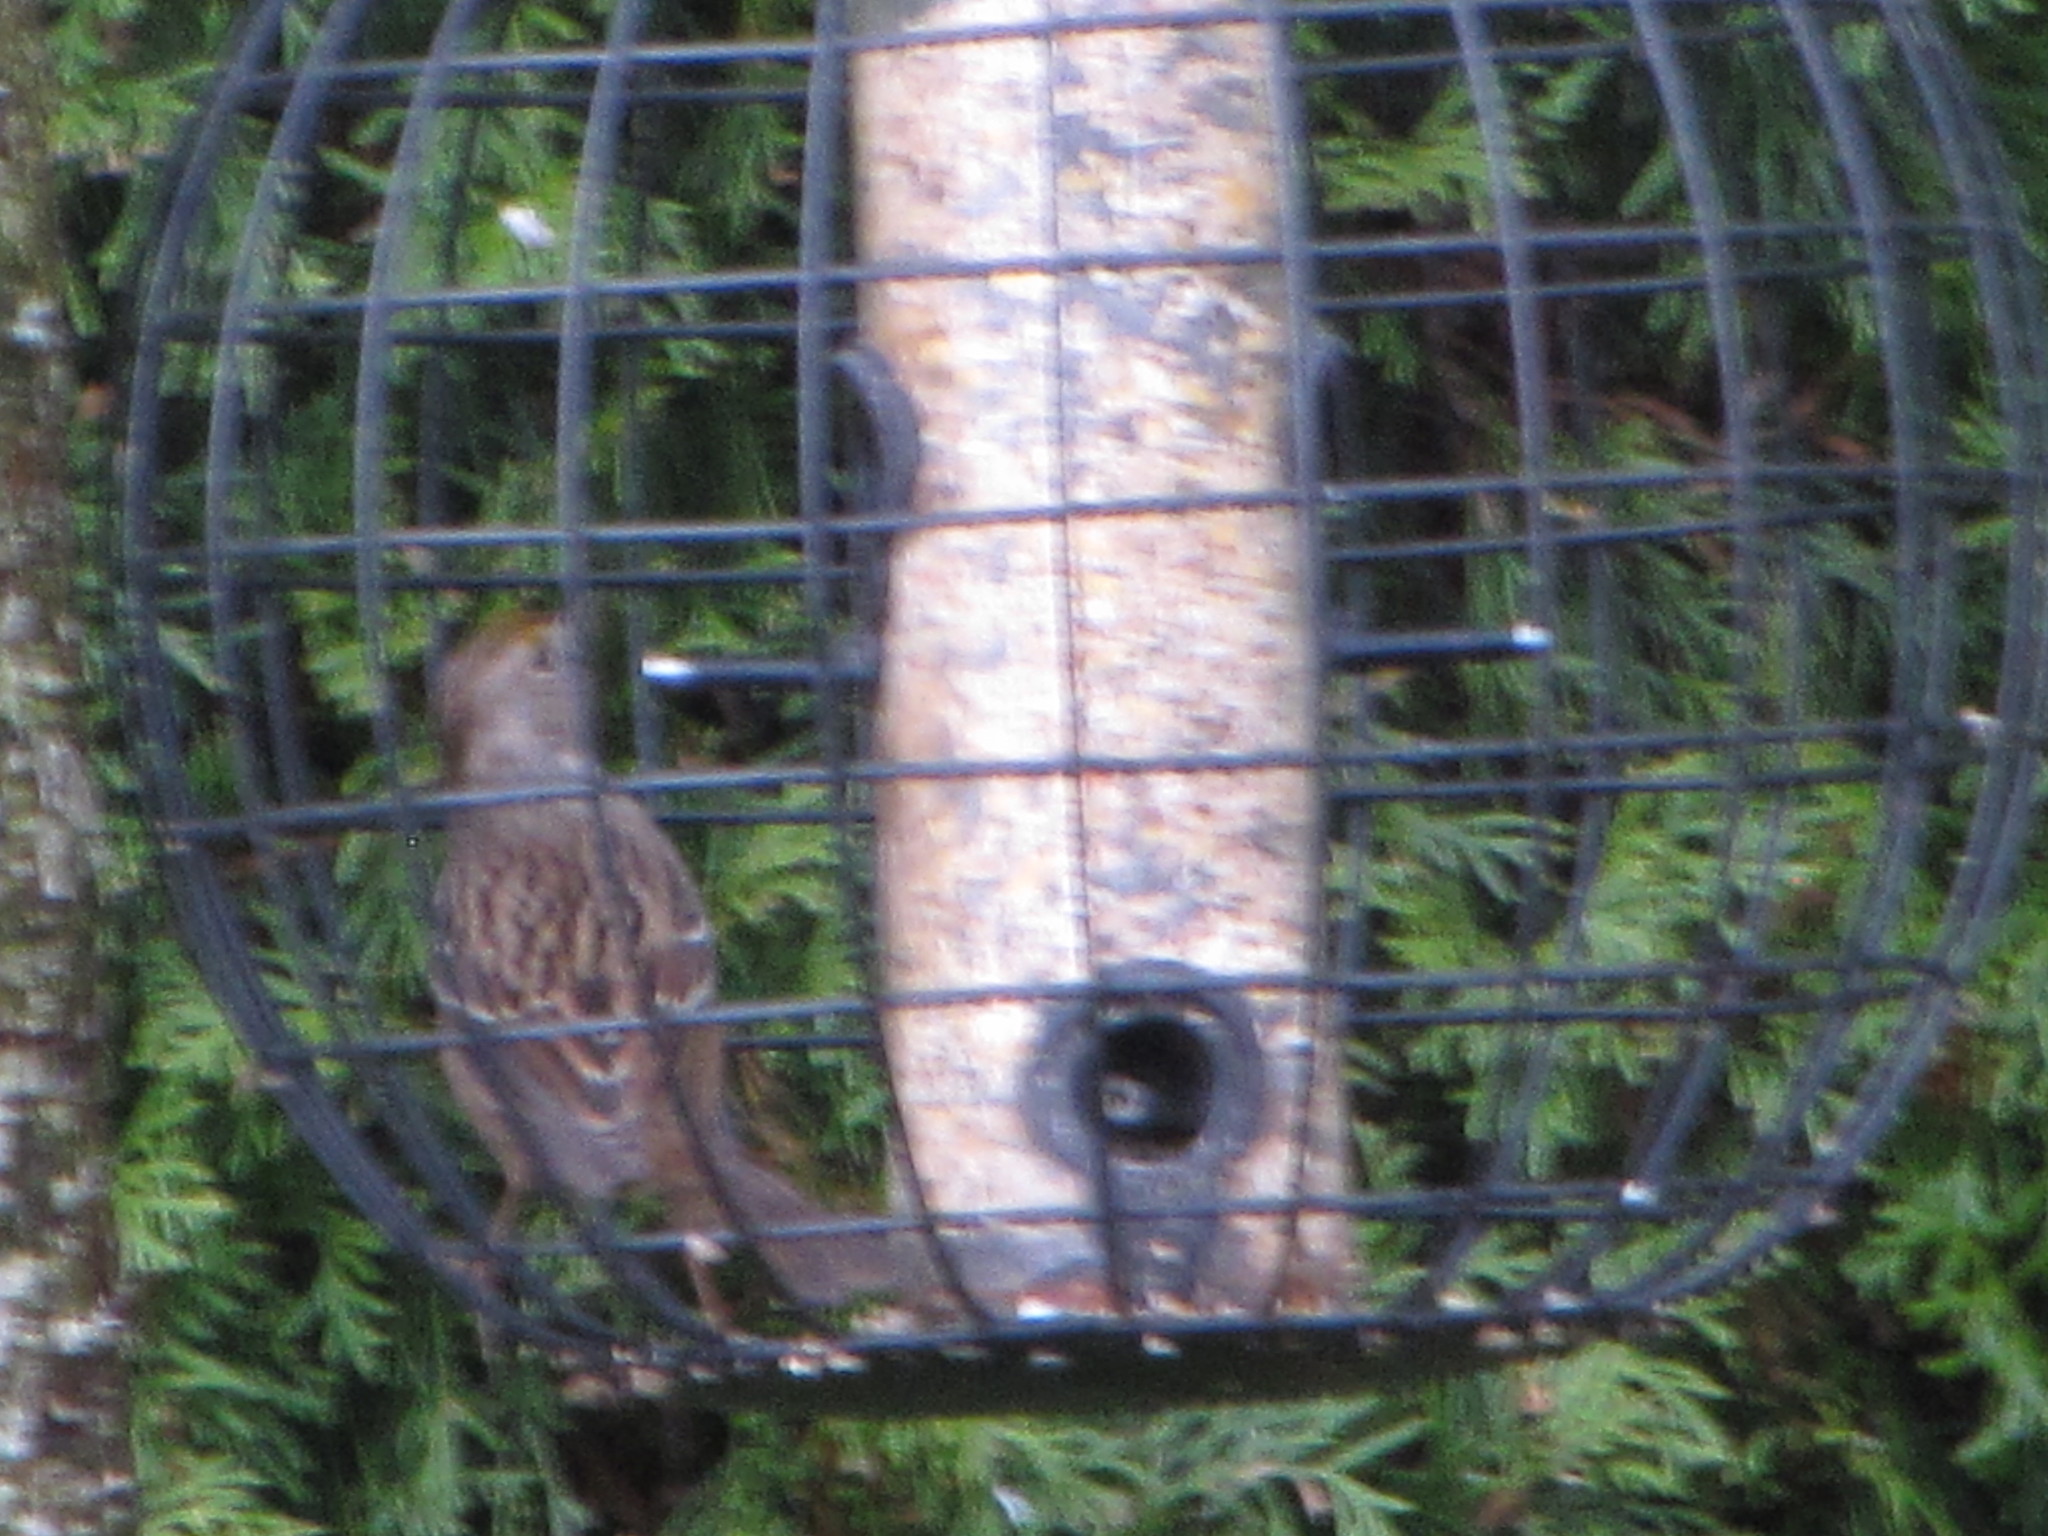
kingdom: Animalia
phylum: Chordata
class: Aves
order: Passeriformes
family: Passerellidae
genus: Zonotrichia
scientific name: Zonotrichia atricapilla
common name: Golden-crowned sparrow
